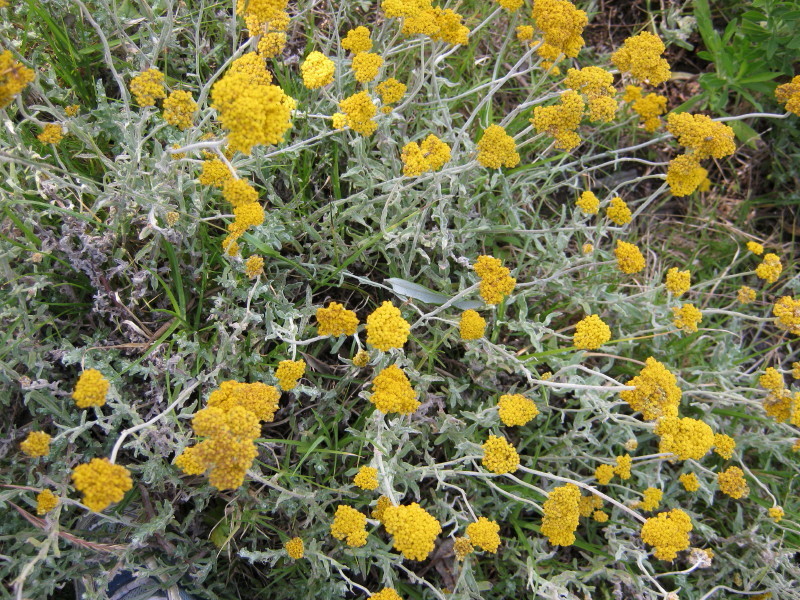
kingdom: Plantae
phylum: Tracheophyta
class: Magnoliopsida
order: Asterales
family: Asteraceae
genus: Helichrysum
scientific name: Helichrysum cymosum
